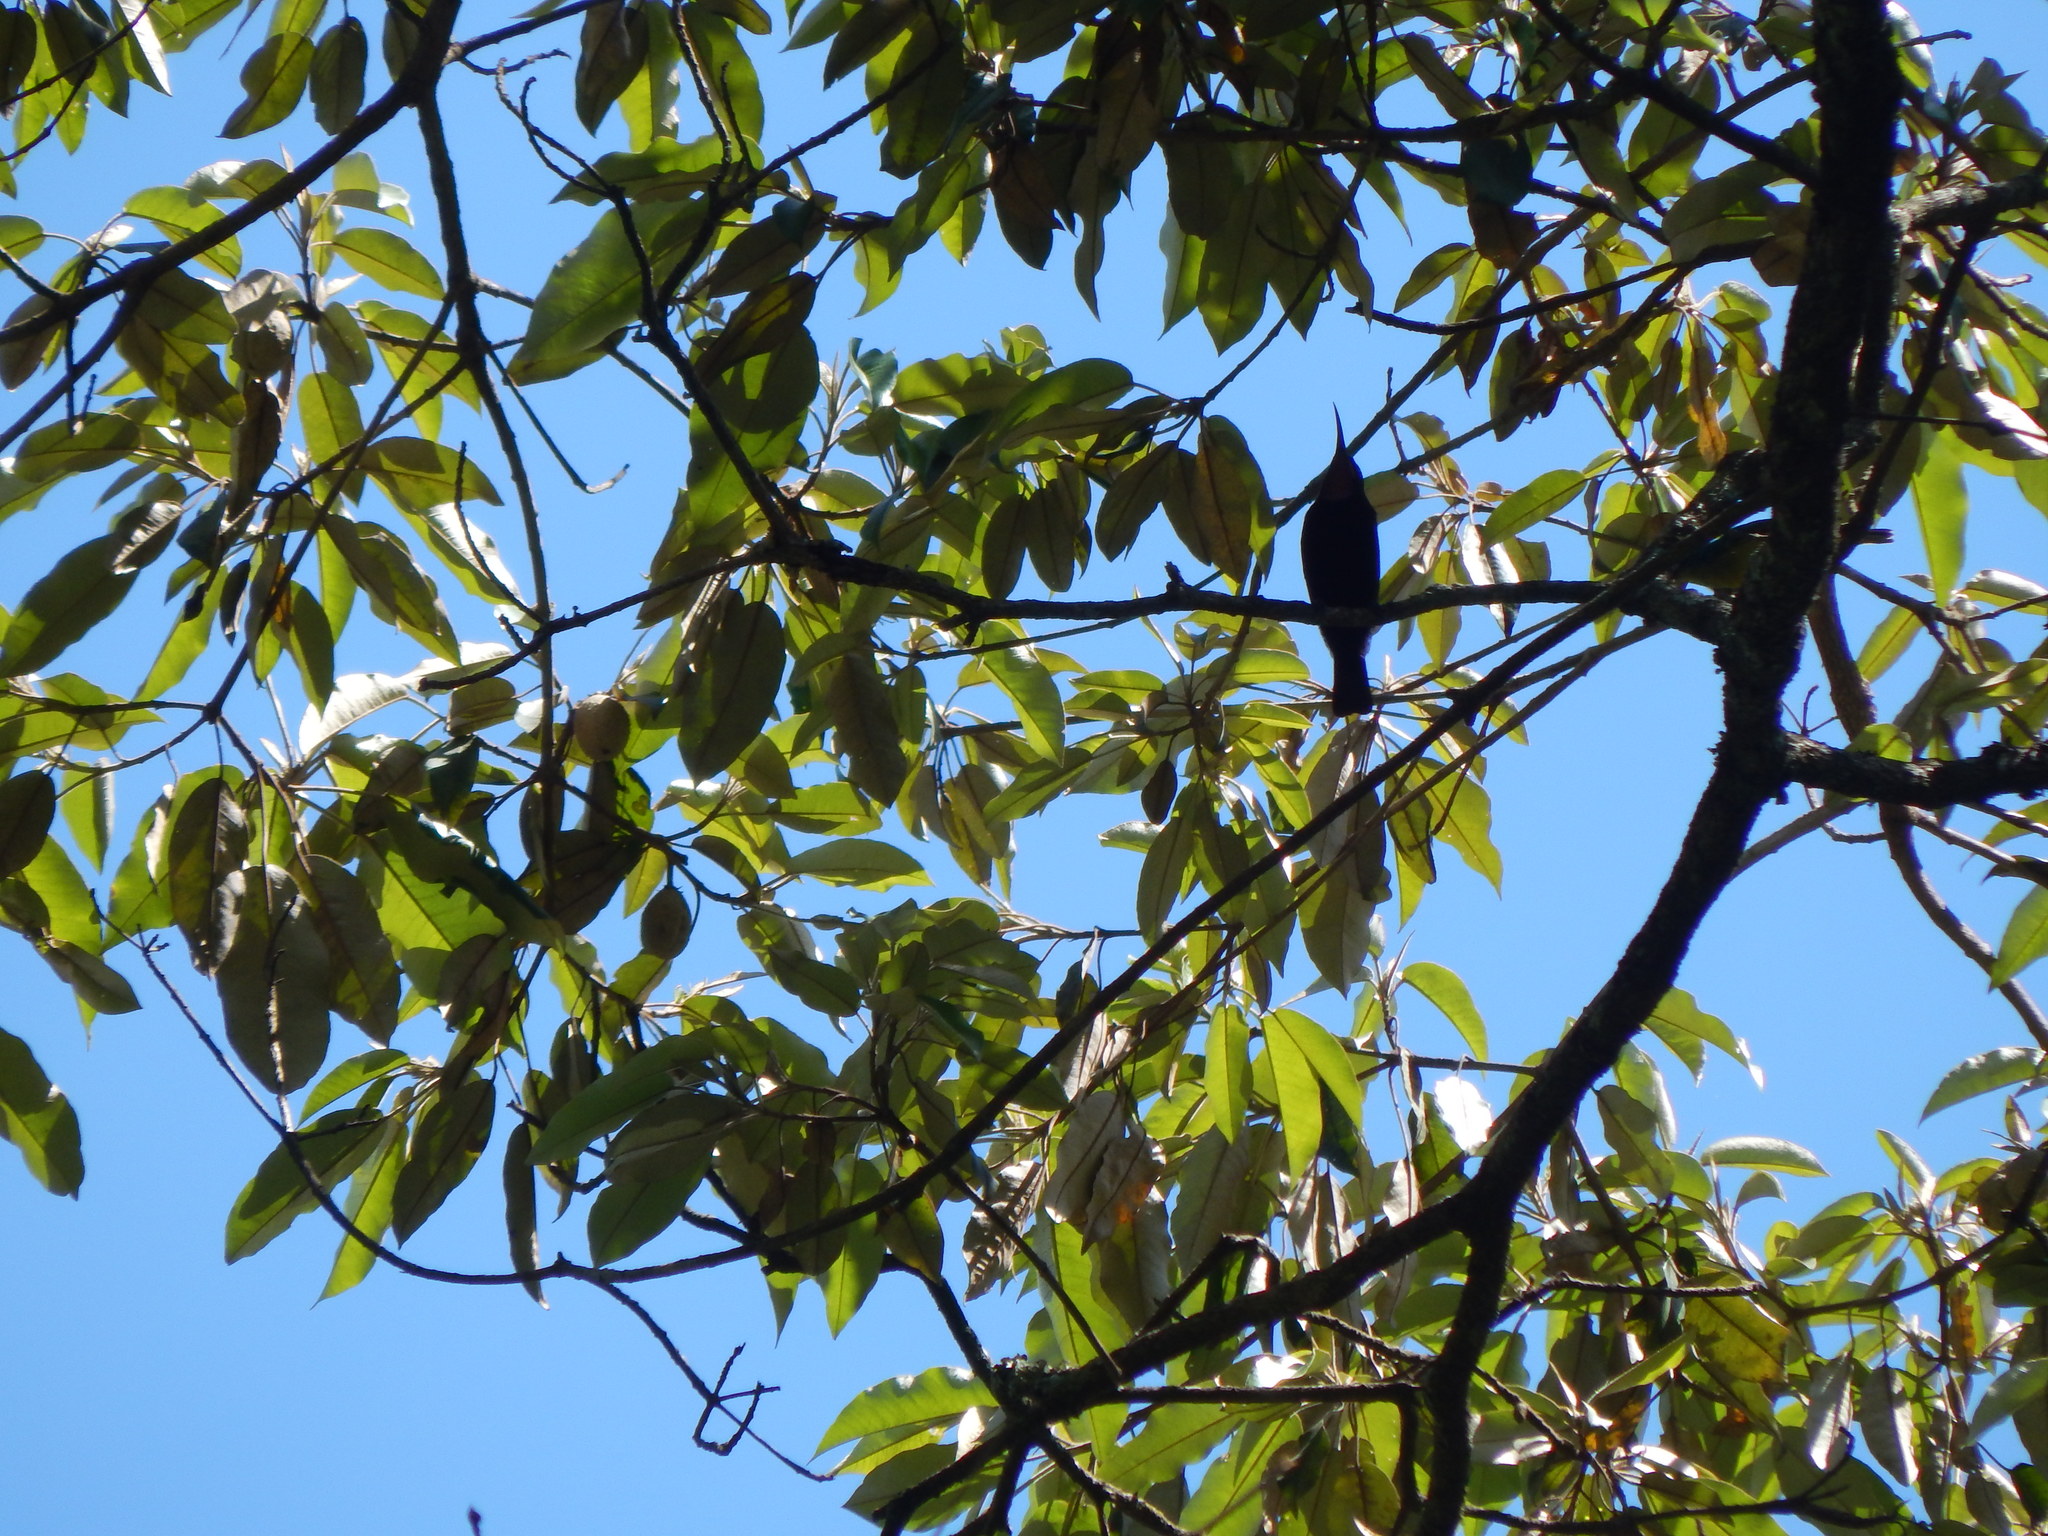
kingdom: Animalia
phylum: Chordata
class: Aves
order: Passeriformes
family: Nectariniidae
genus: Chalcomitra
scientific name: Chalcomitra amethystina
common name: Amethyst sunbird
